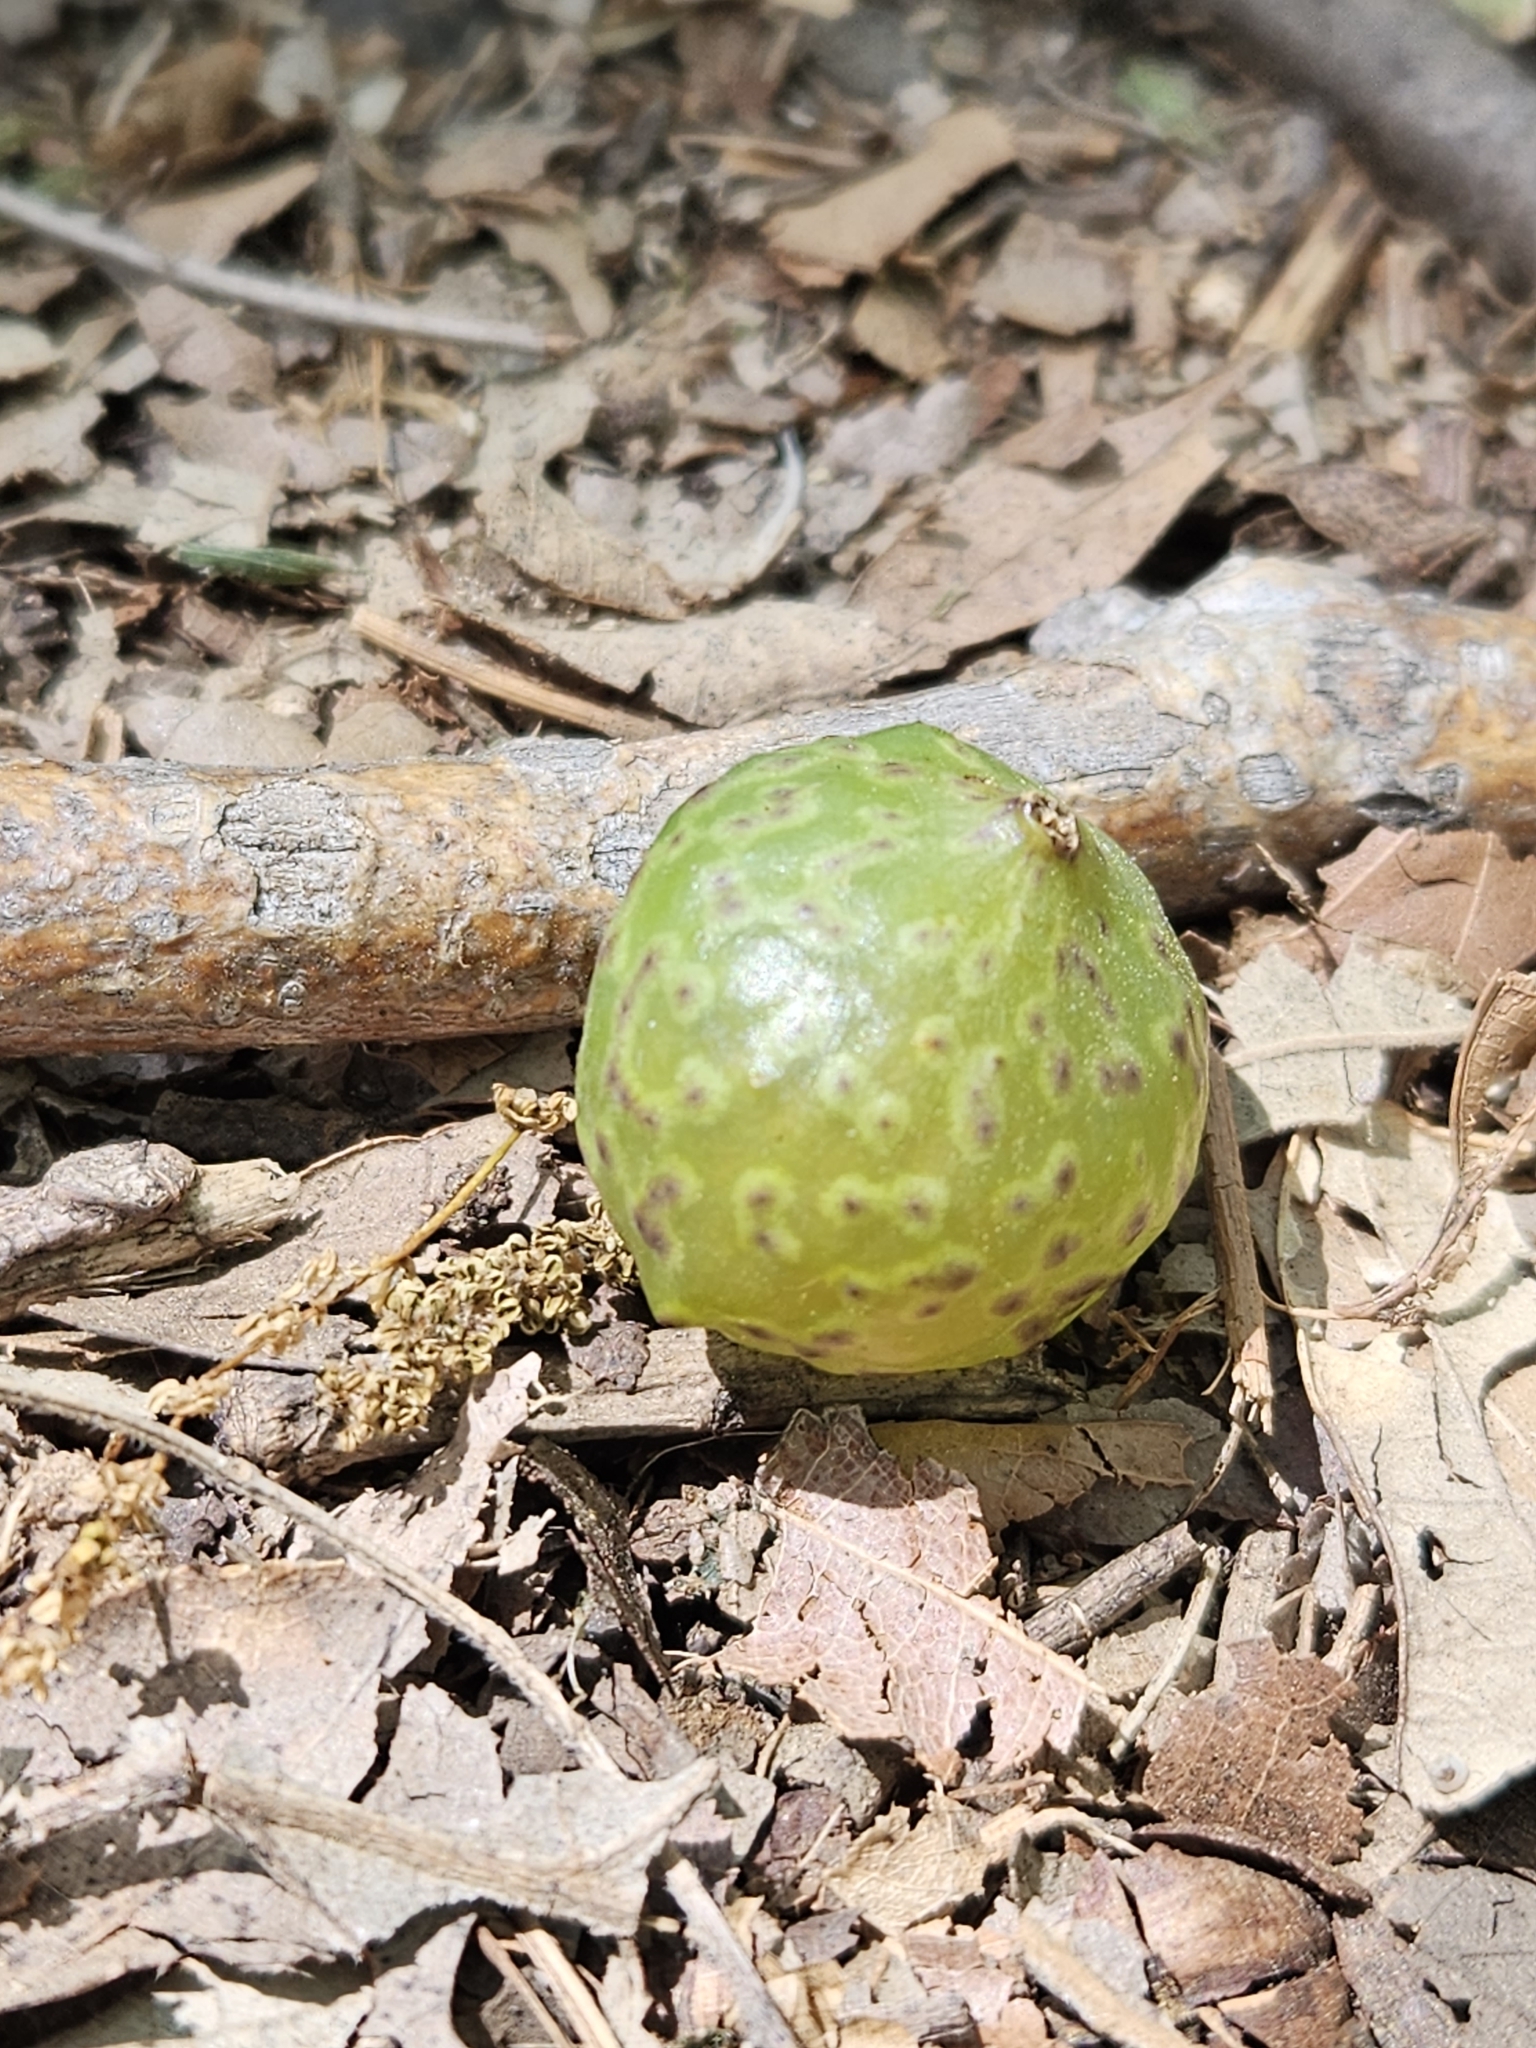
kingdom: Animalia
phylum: Arthropoda
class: Insecta
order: Hymenoptera
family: Cynipidae
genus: Amphibolips
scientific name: Amphibolips
